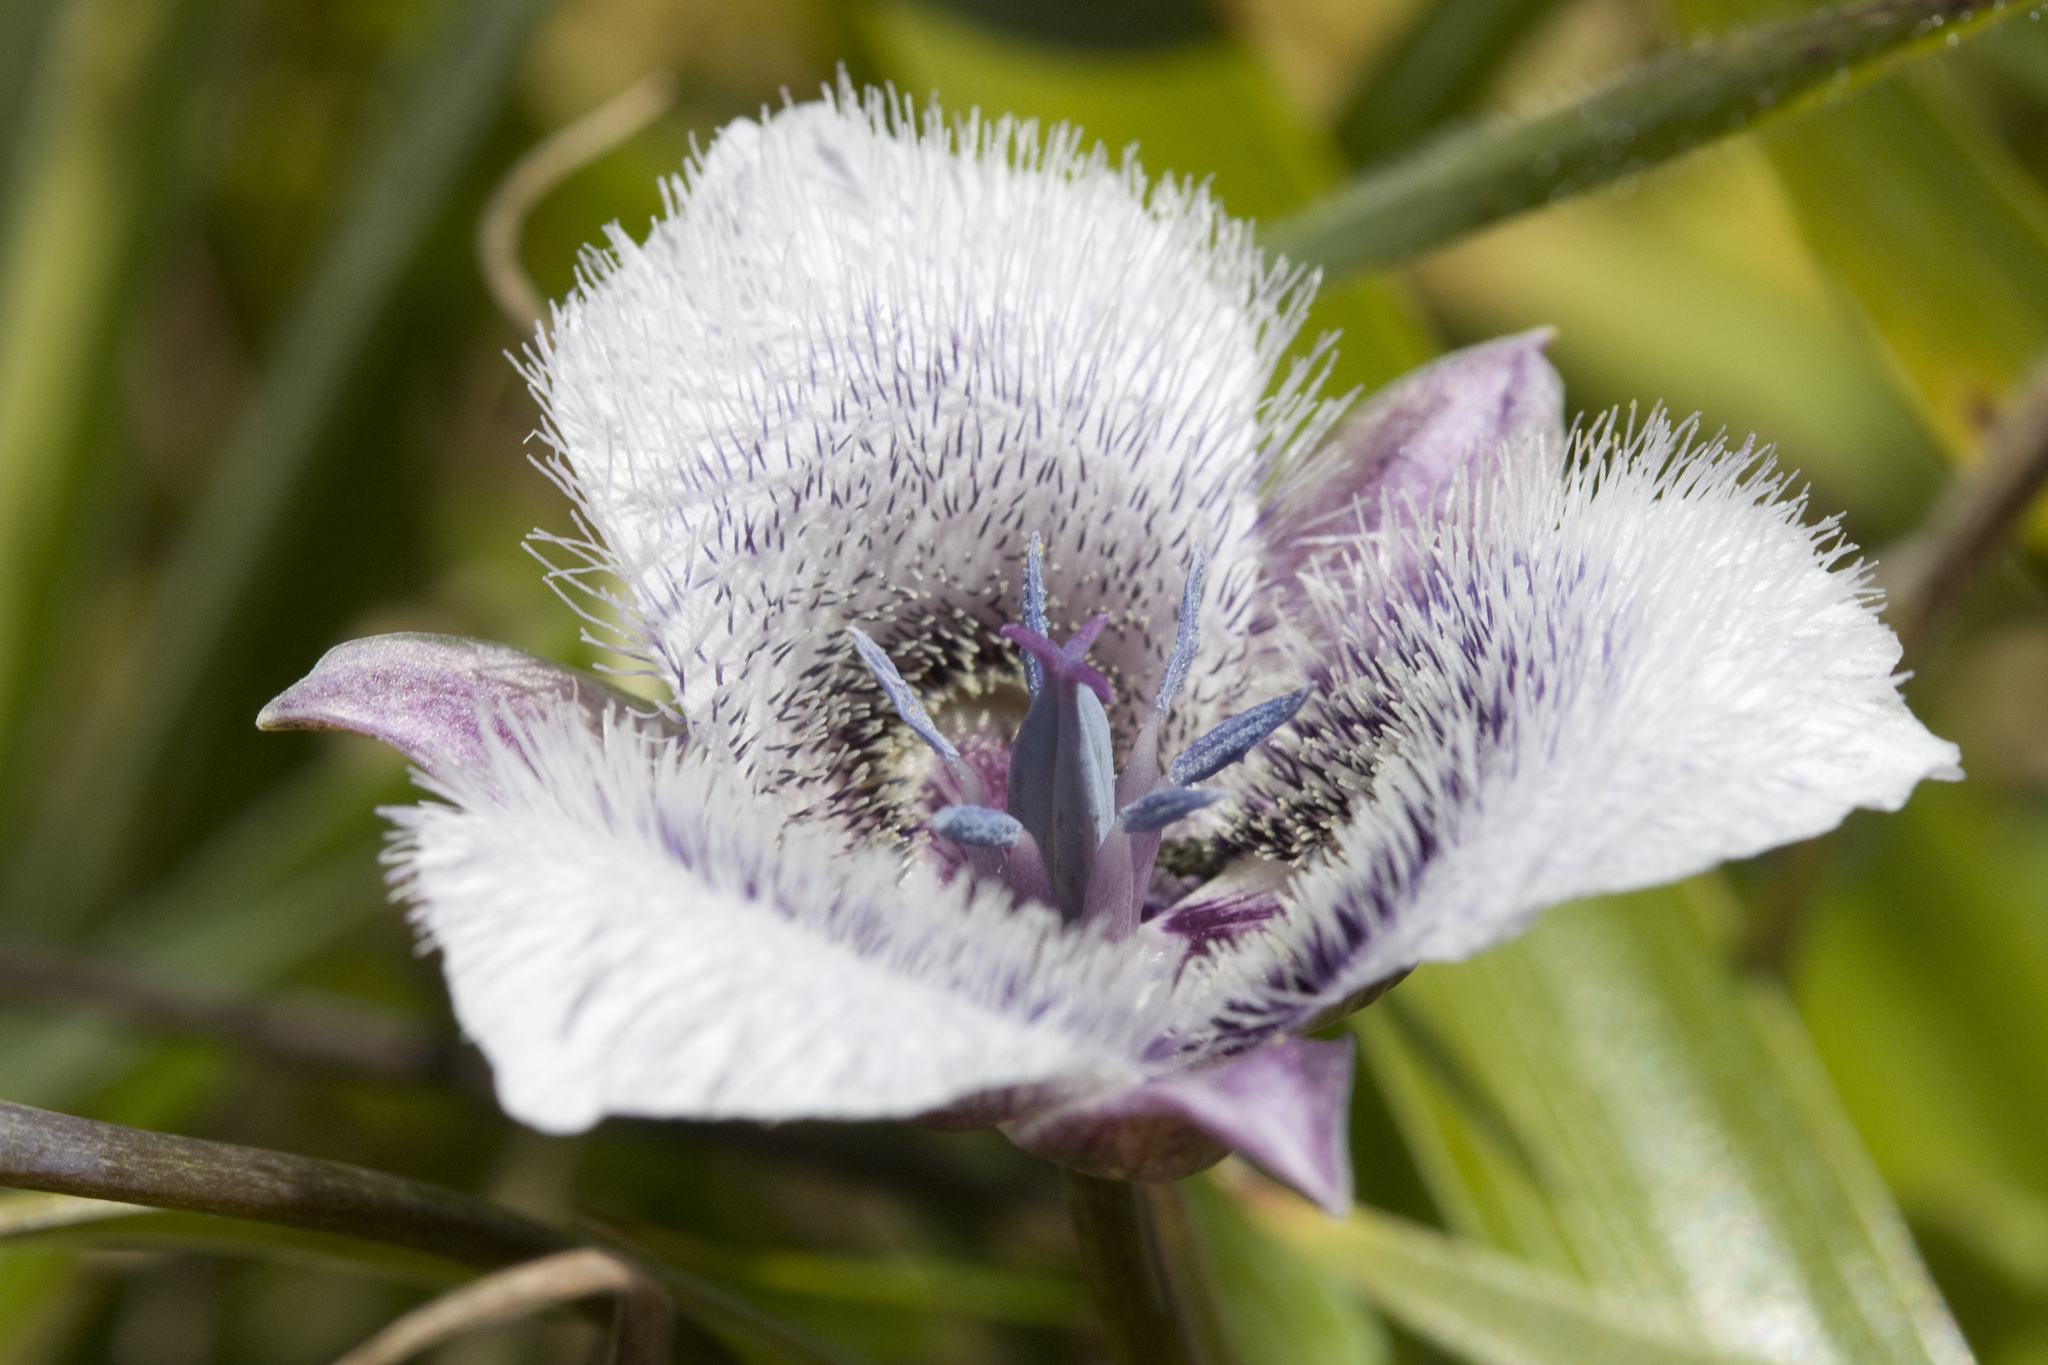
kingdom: Plantae
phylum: Tracheophyta
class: Liliopsida
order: Liliales
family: Liliaceae
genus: Calochortus
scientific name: Calochortus tolmiei
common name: Pussy-ears
